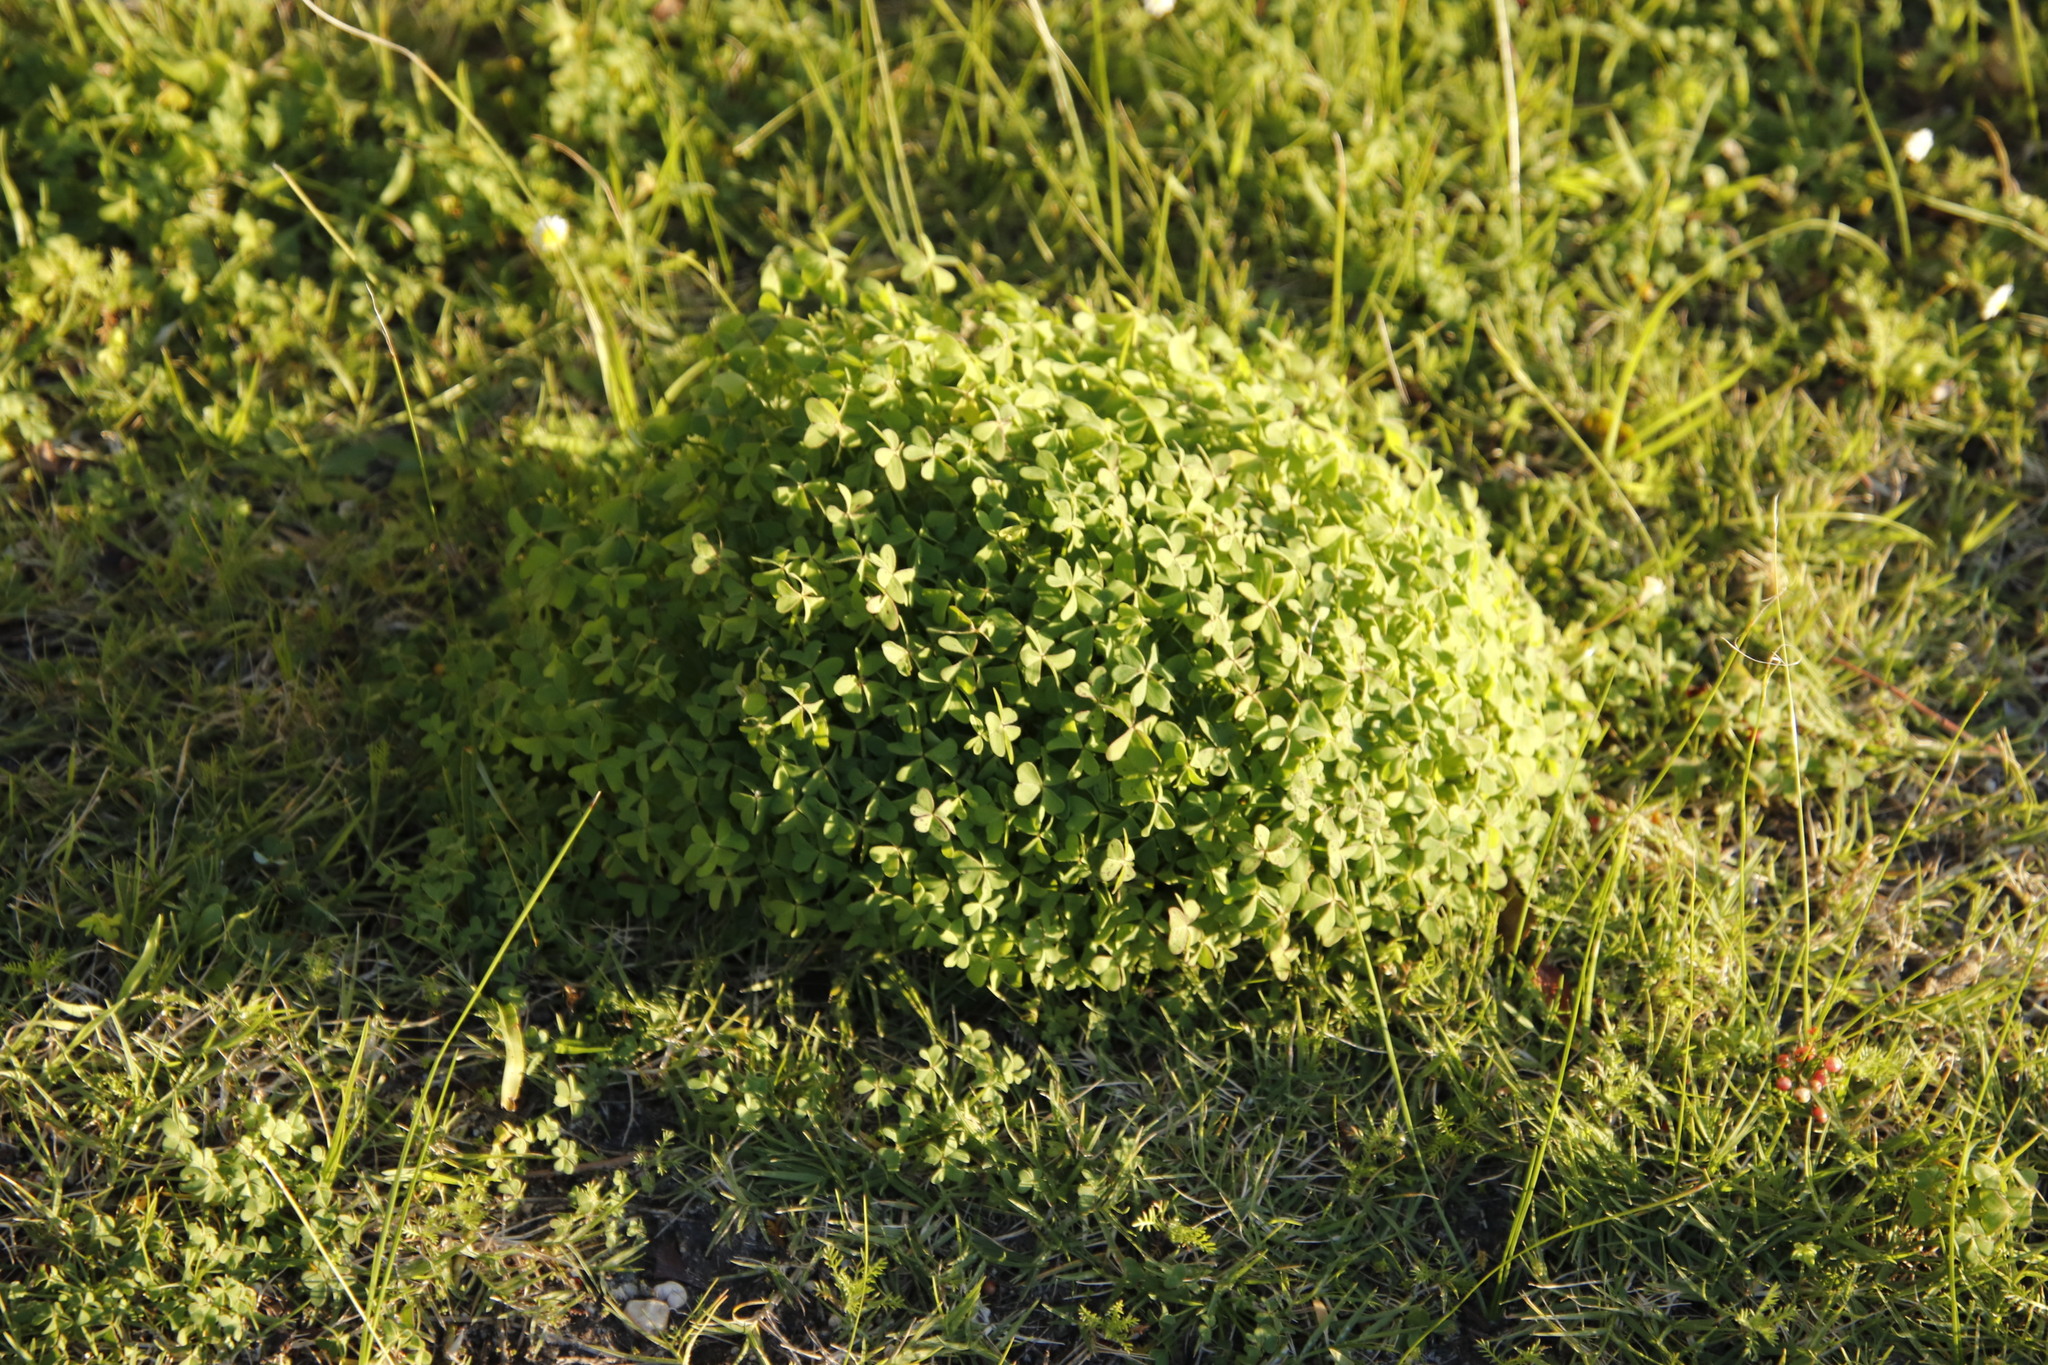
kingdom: Plantae
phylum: Tracheophyta
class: Magnoliopsida
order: Oxalidales
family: Oxalidaceae
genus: Oxalis
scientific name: Oxalis pes-caprae
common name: Bermuda-buttercup
